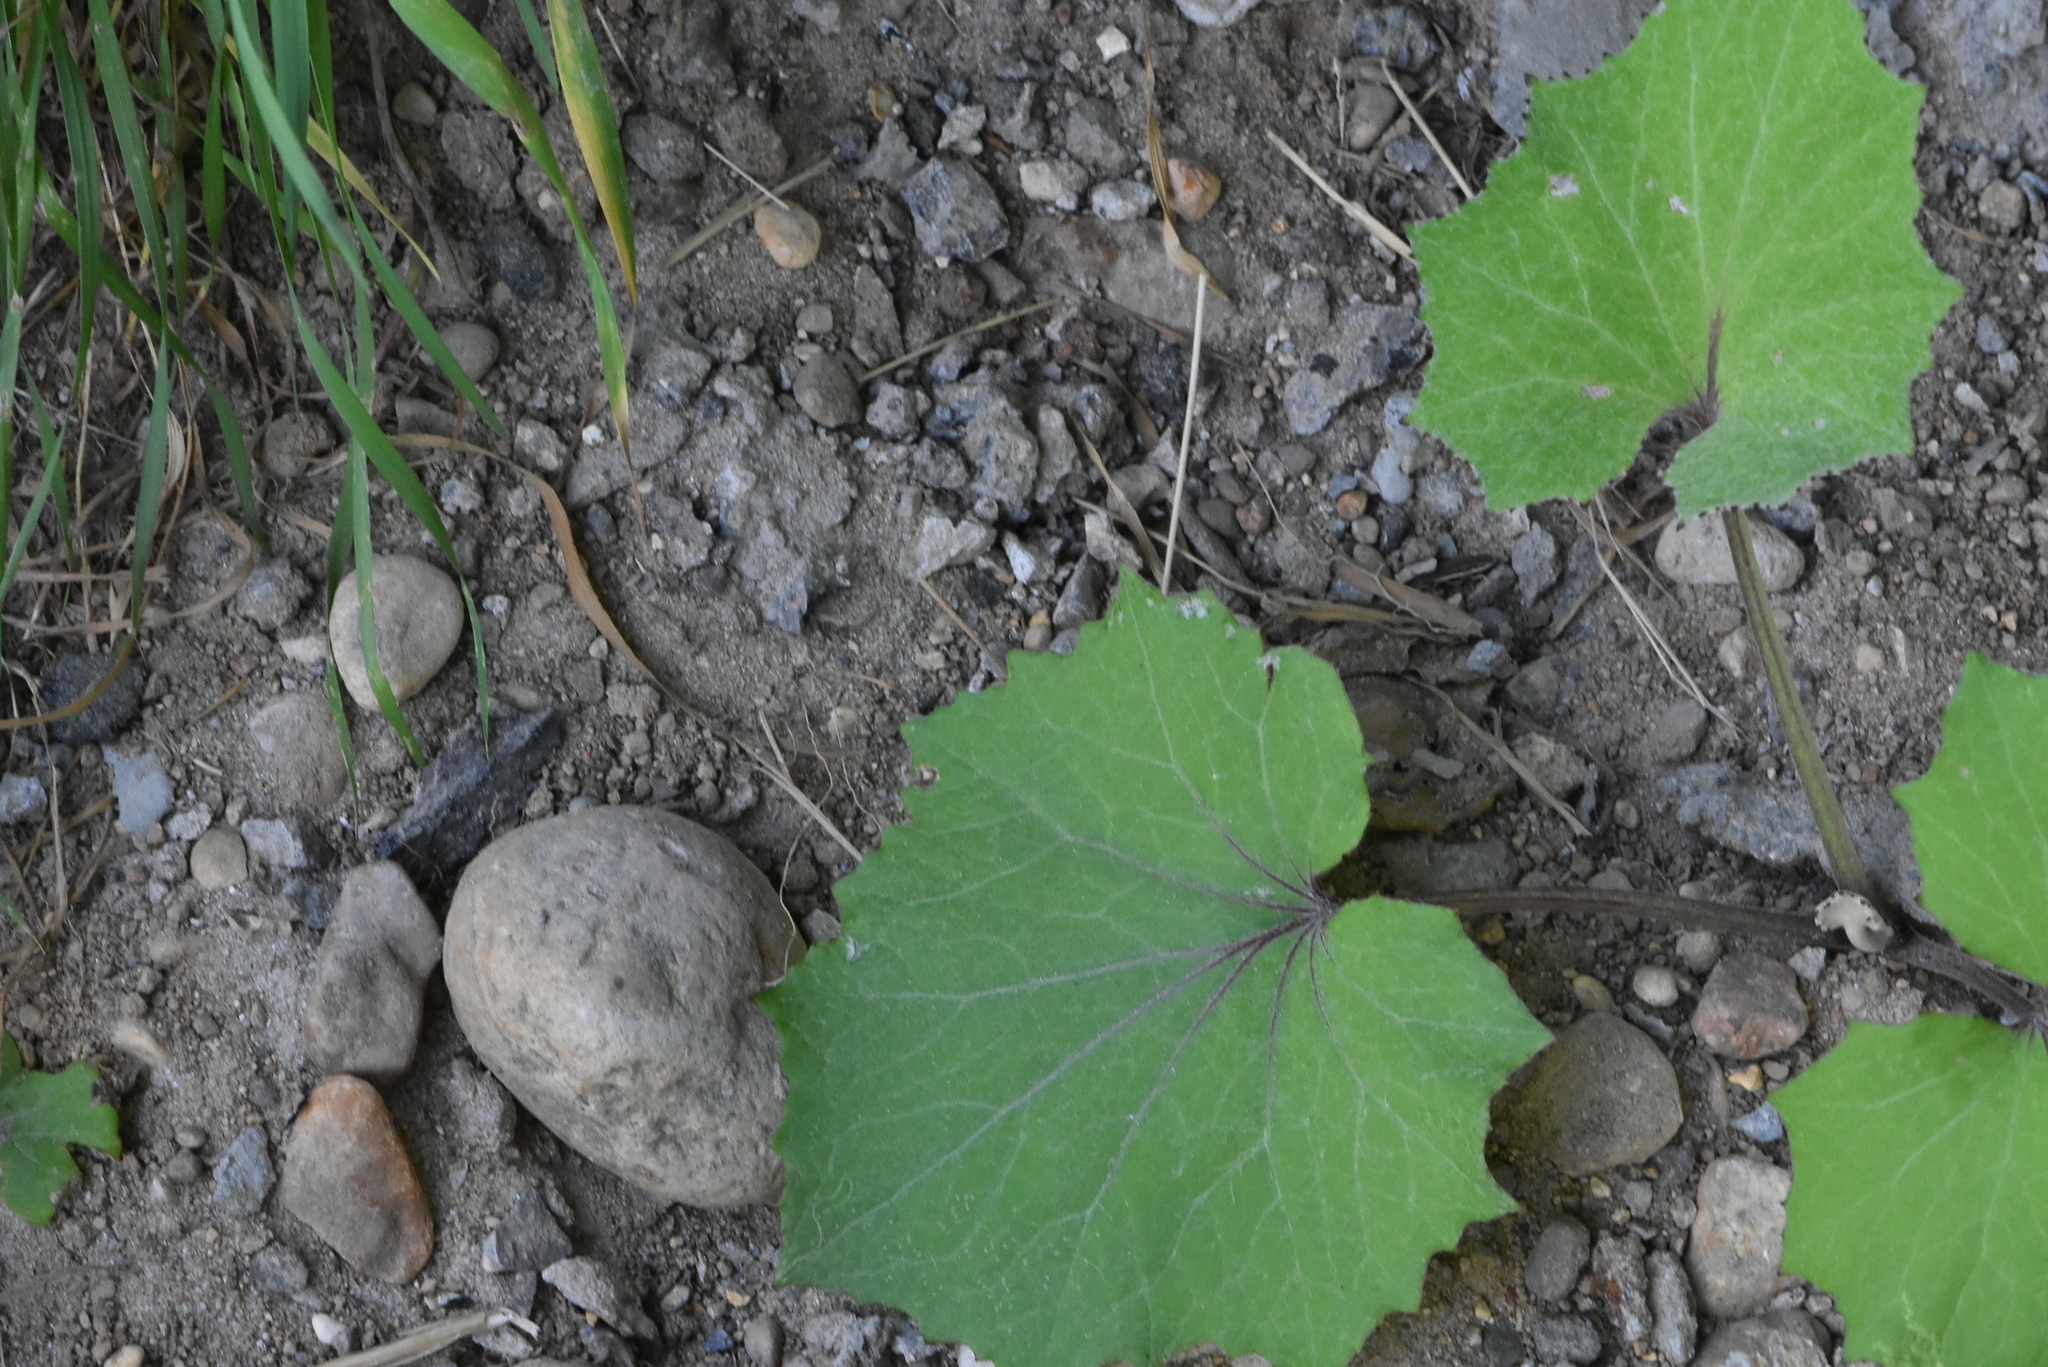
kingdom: Plantae
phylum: Tracheophyta
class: Magnoliopsida
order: Asterales
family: Asteraceae
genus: Tussilago
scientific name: Tussilago farfara
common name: Coltsfoot
